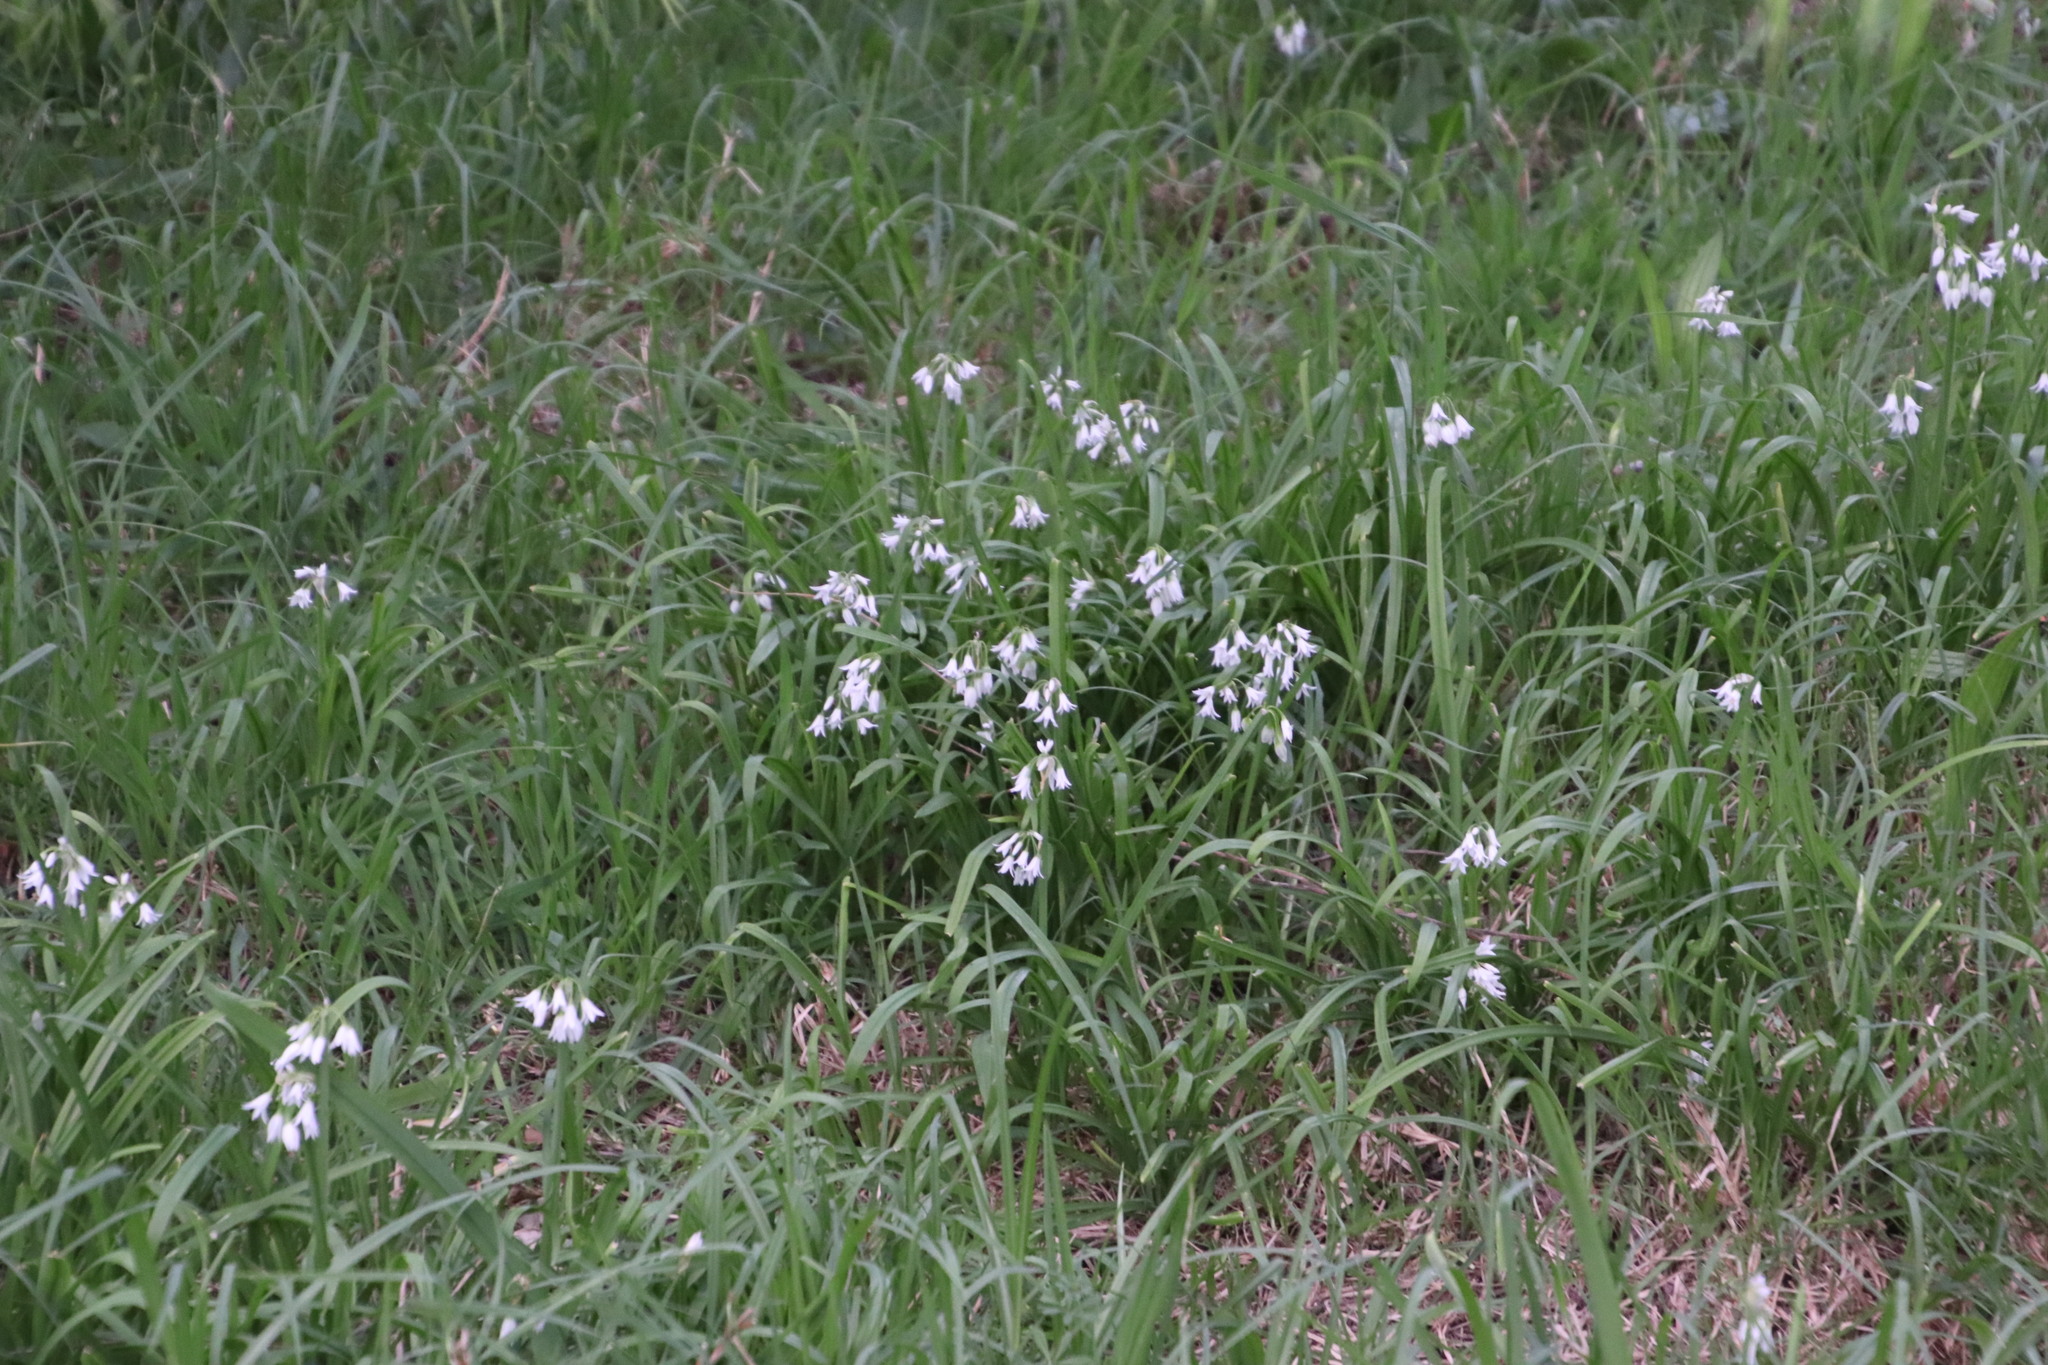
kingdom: Plantae
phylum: Tracheophyta
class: Liliopsida
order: Asparagales
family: Amaryllidaceae
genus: Allium
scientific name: Allium triquetrum
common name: Three-cornered garlic
